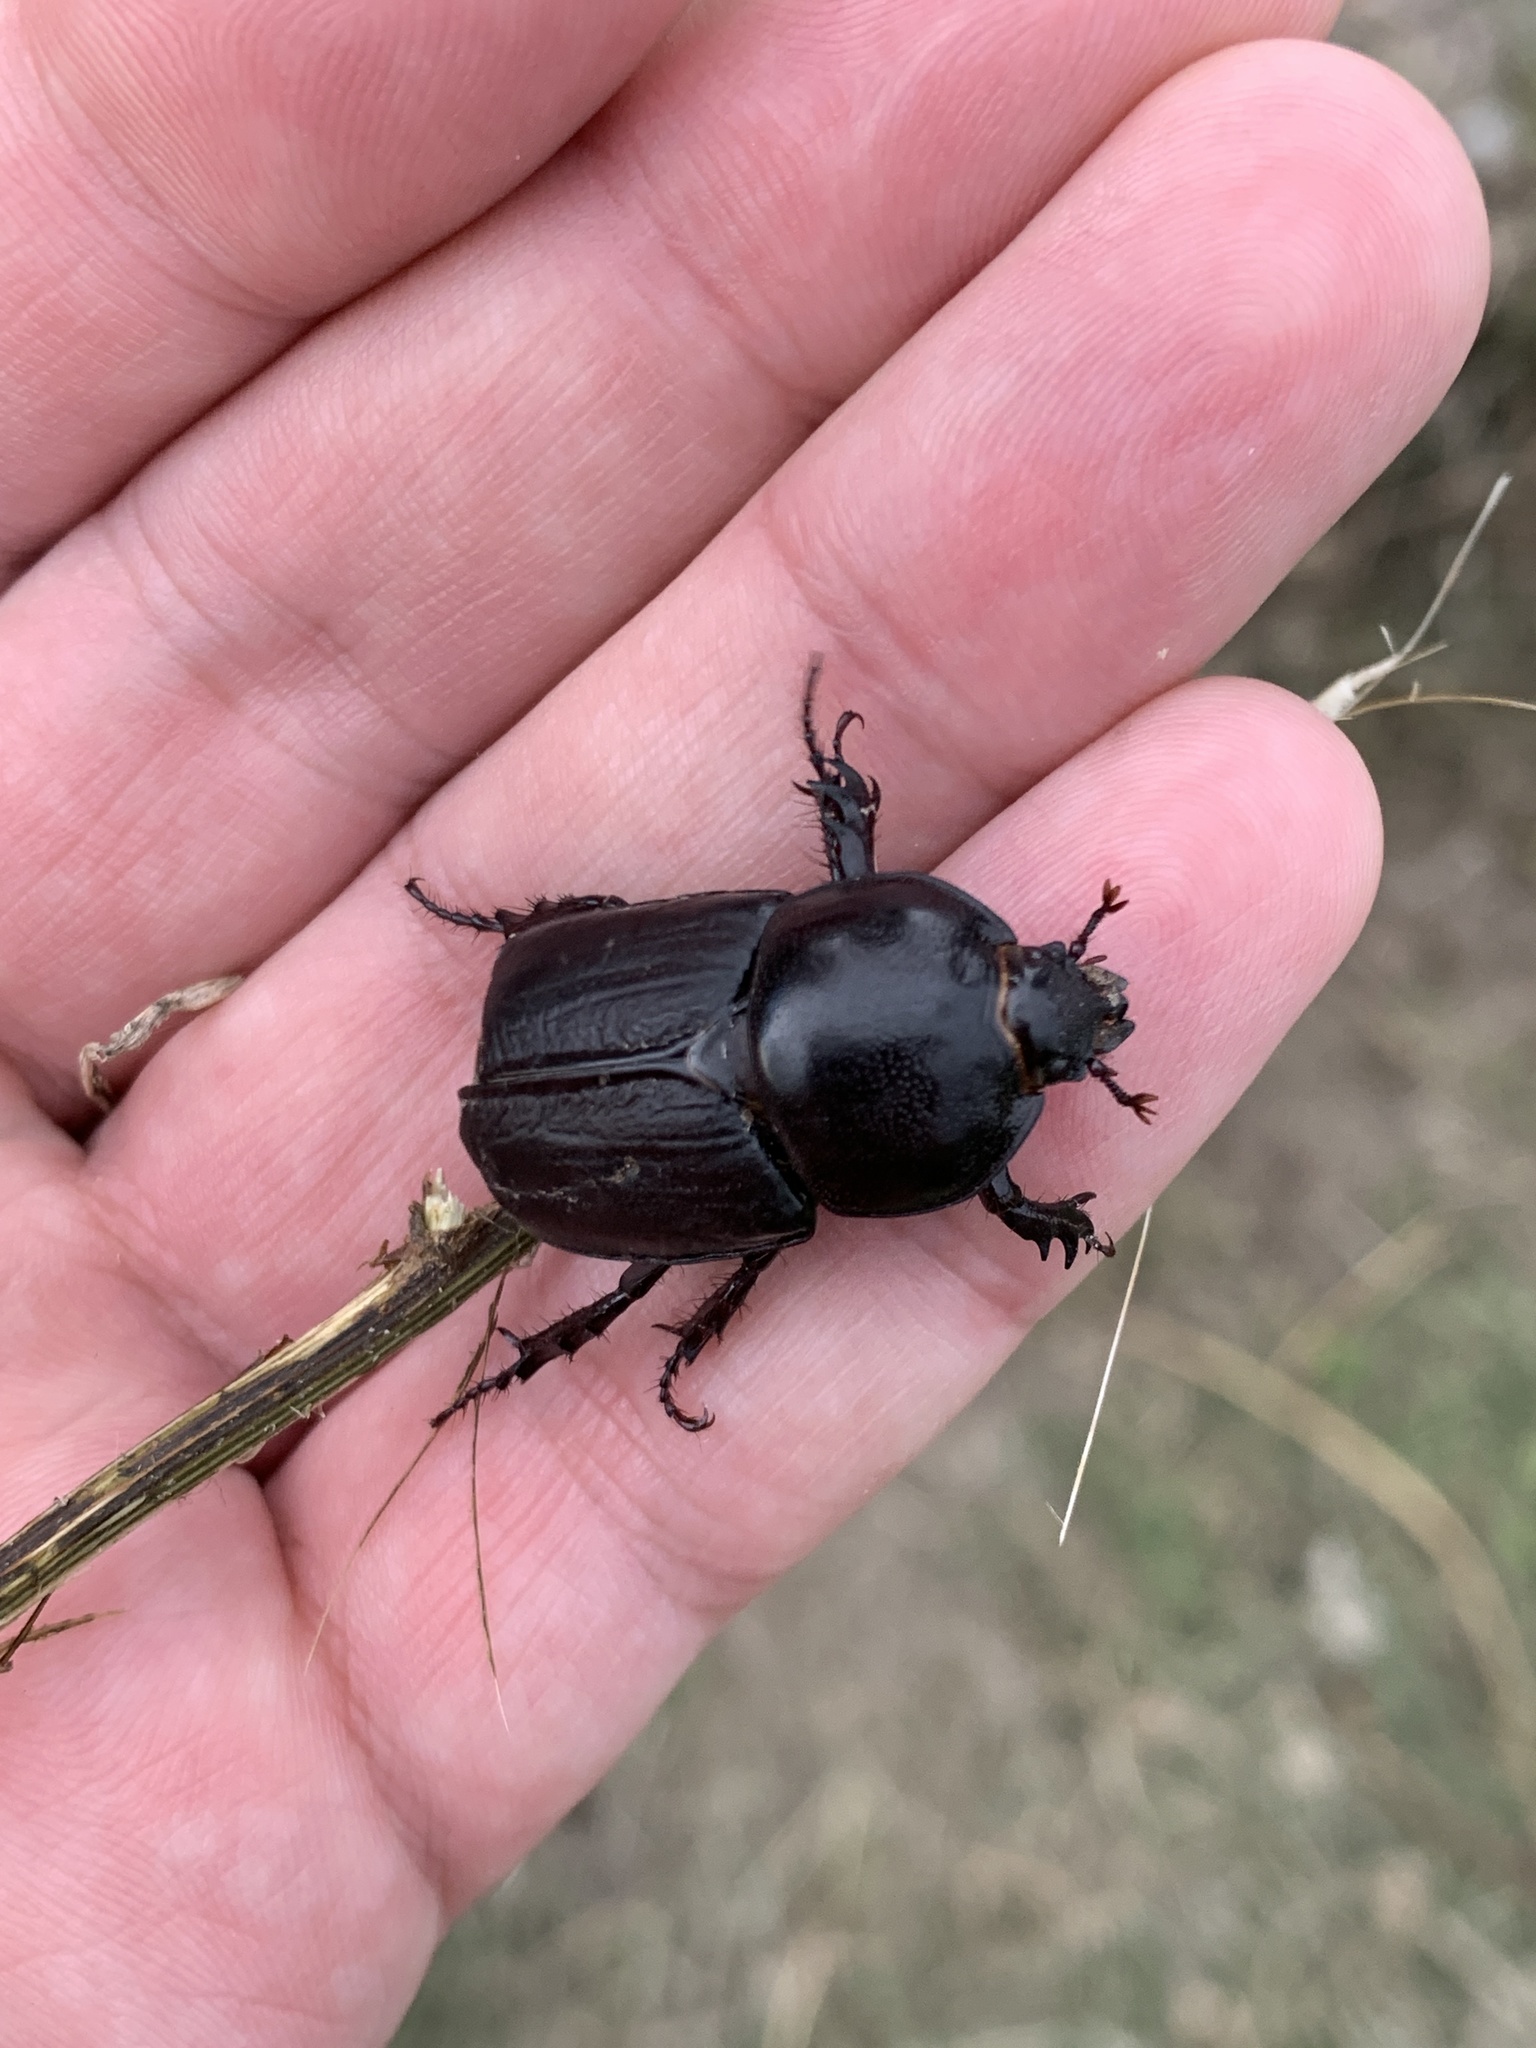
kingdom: Animalia
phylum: Arthropoda
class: Insecta
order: Coleoptera
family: Scarabaeidae
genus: Diloboderus
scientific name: Diloboderus abderus
